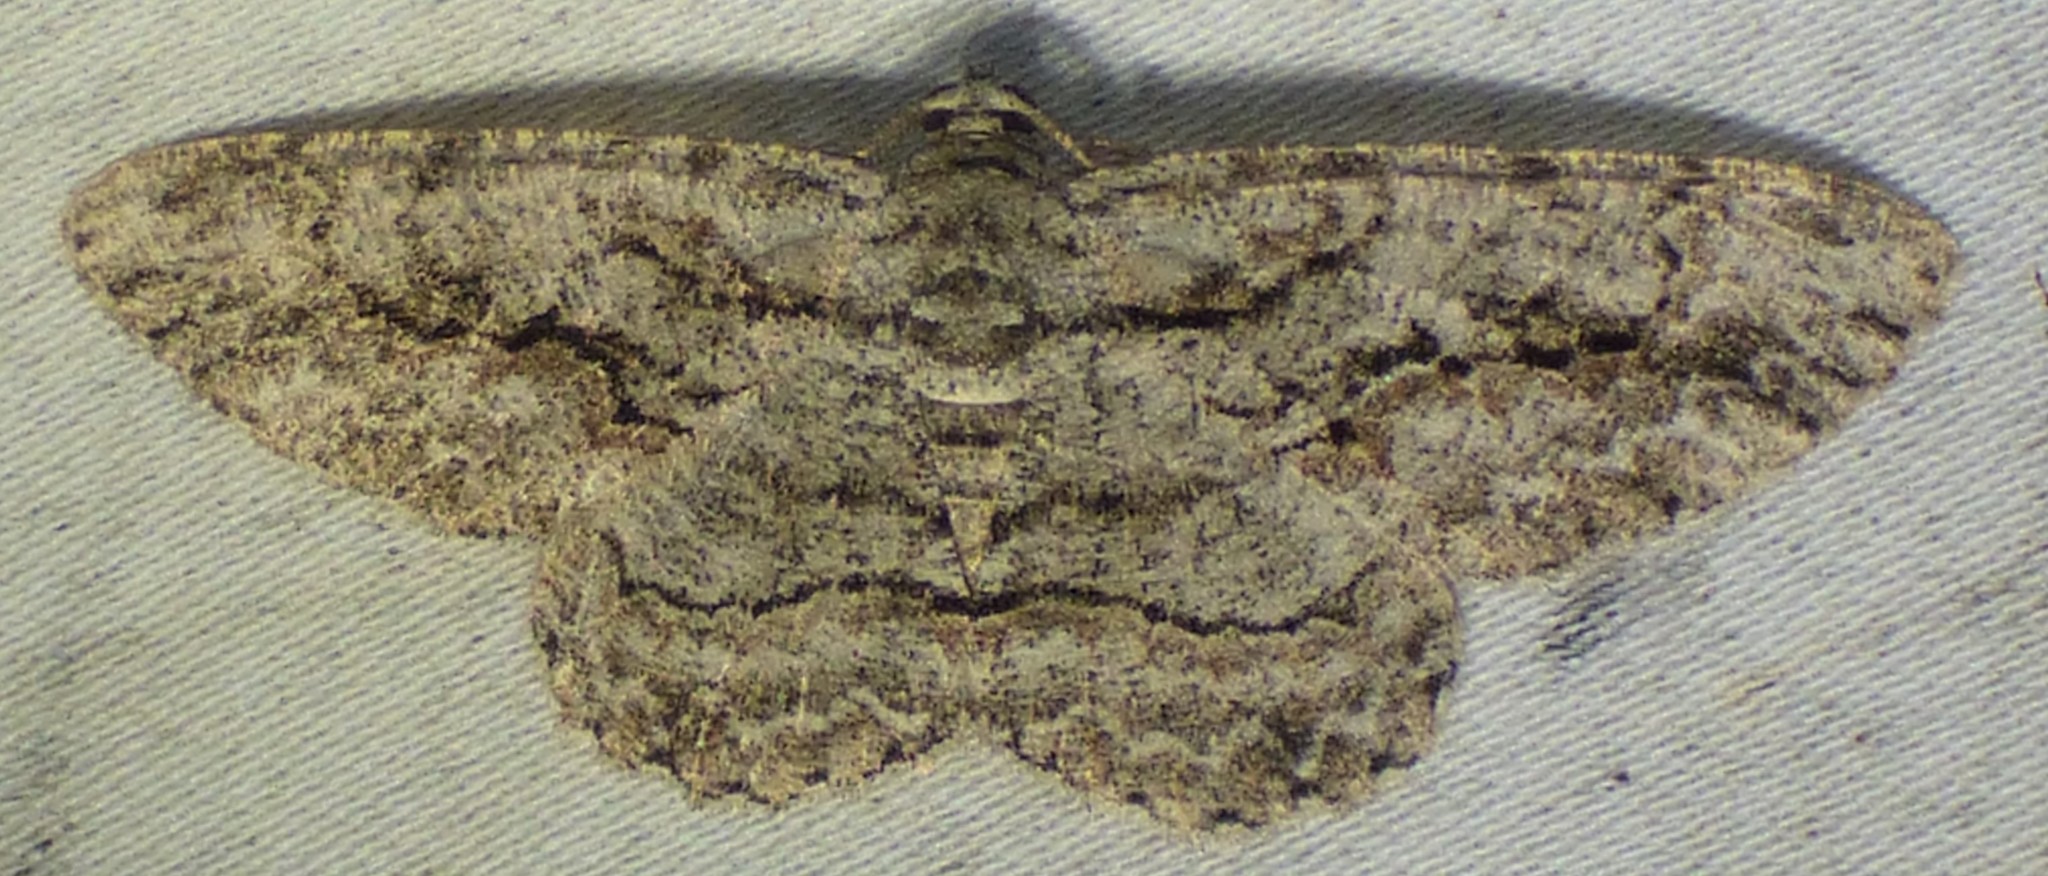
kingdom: Animalia
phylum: Arthropoda
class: Insecta
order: Lepidoptera
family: Geometridae
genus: Anavitrinella
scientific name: Anavitrinella pampinaria
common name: Common gray
